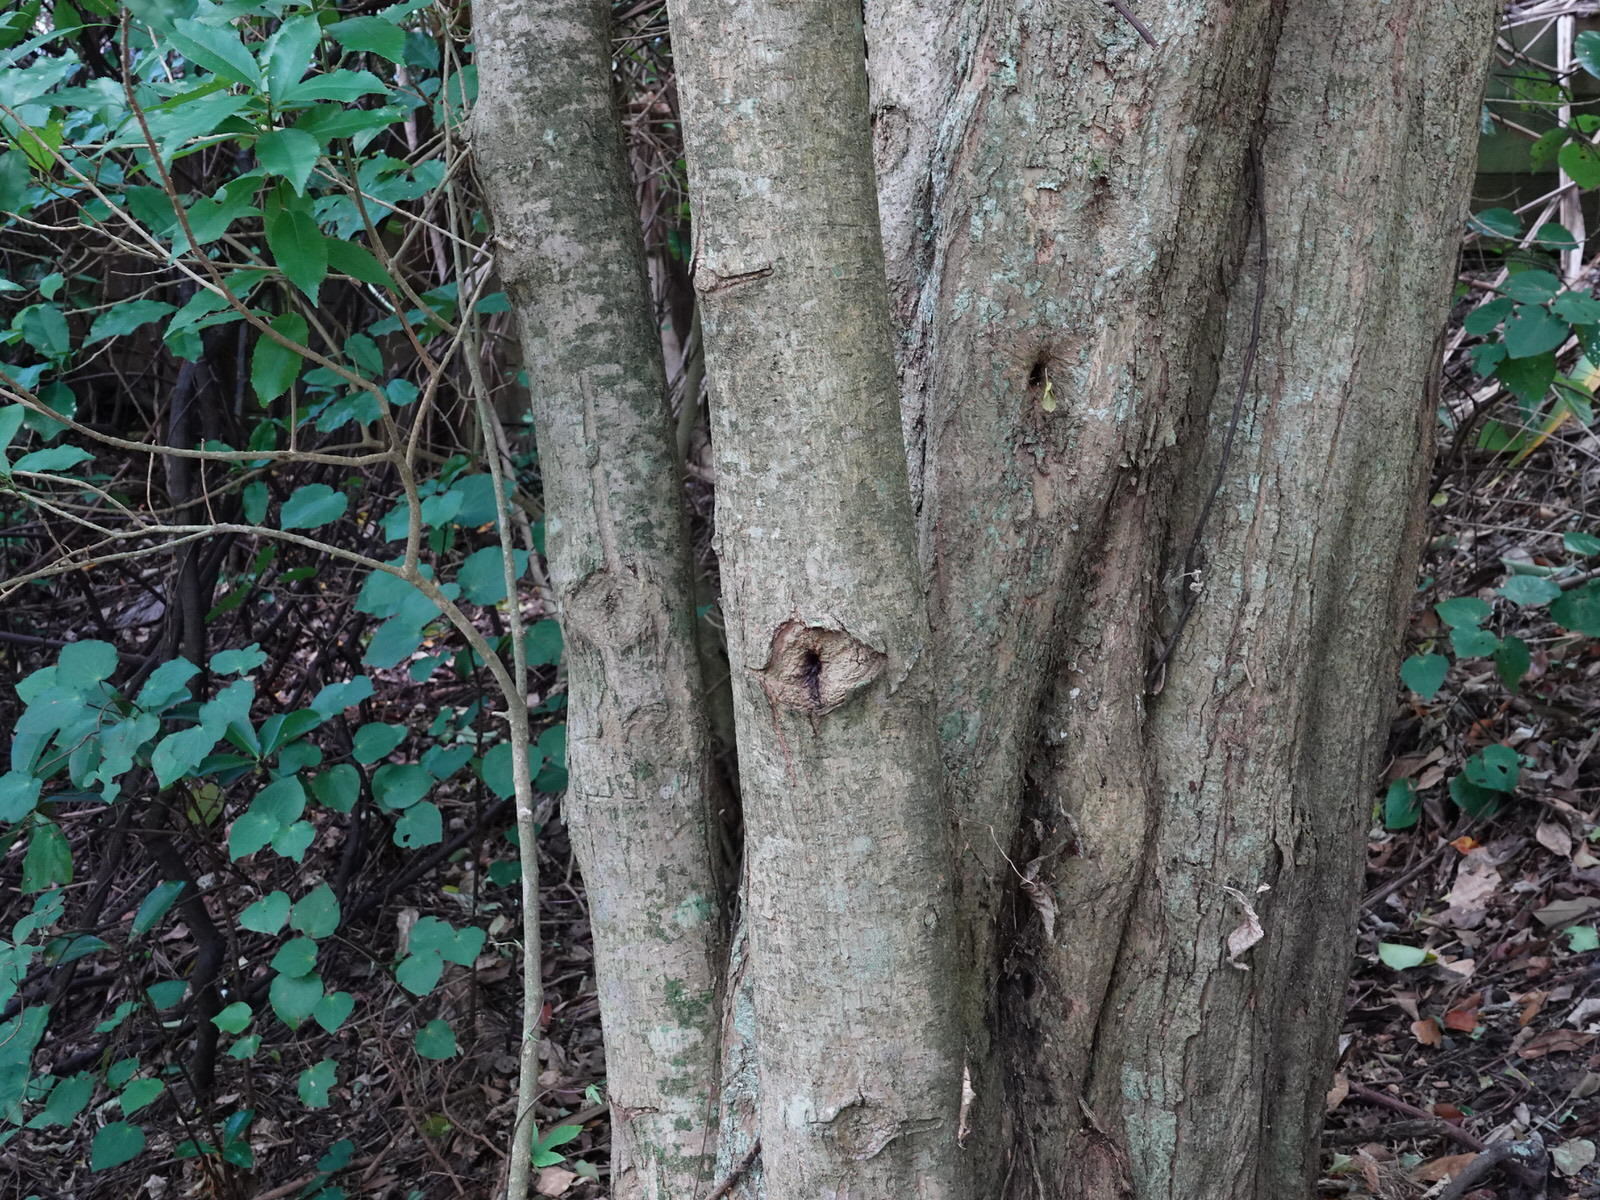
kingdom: Animalia
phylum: Arthropoda
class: Insecta
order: Lepidoptera
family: Hepialidae
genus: Aenetus
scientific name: Aenetus virescens
